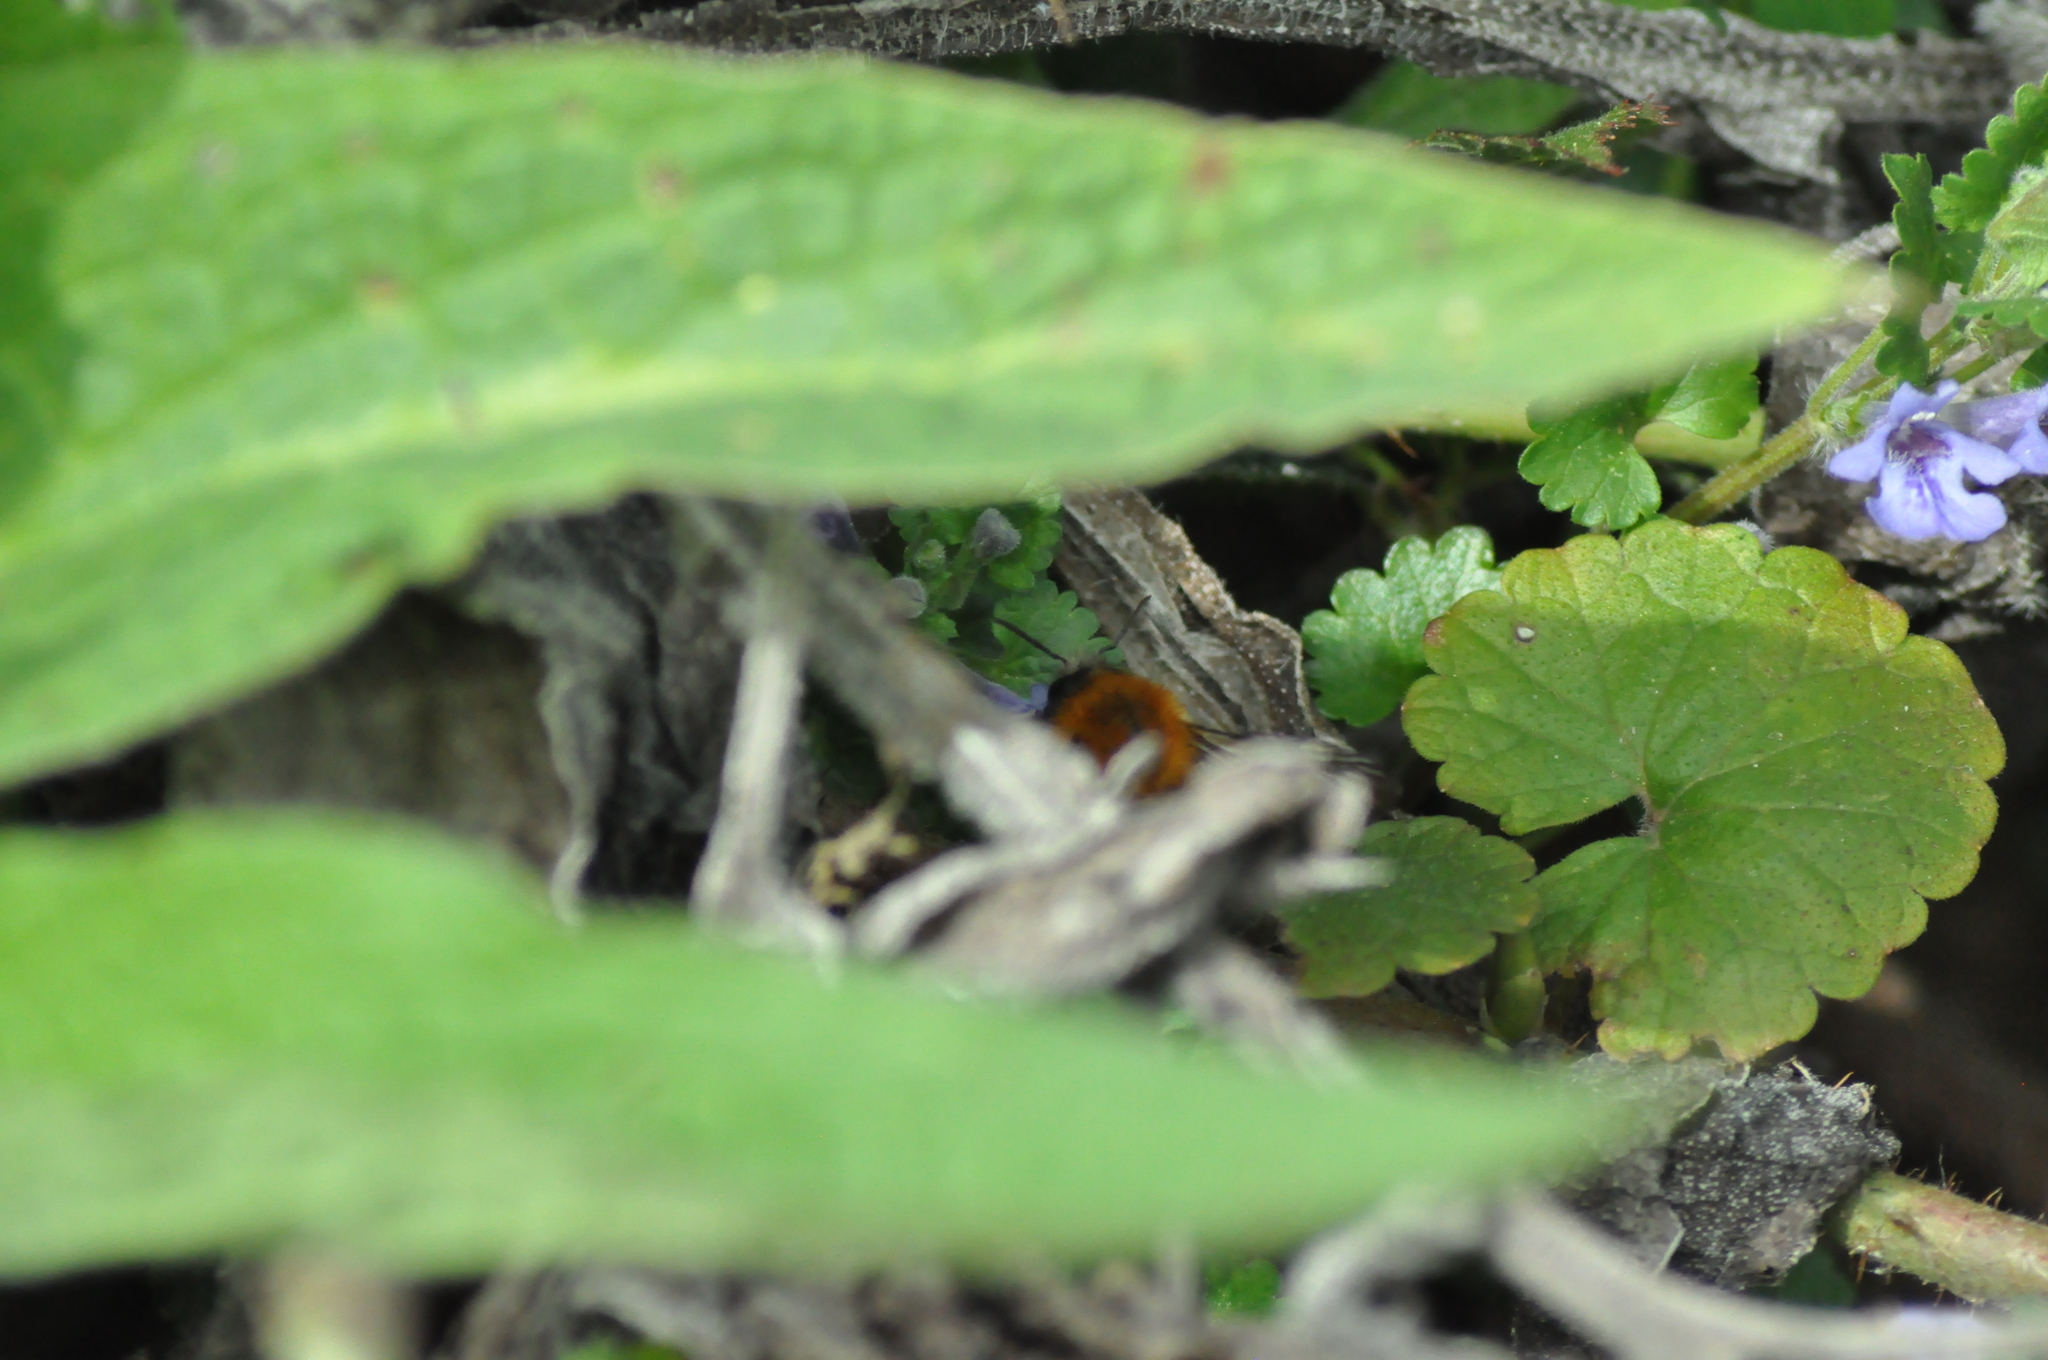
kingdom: Animalia
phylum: Arthropoda
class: Insecta
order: Hymenoptera
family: Apidae
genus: Bombus
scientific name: Bombus pascuorum
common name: Common carder bee
